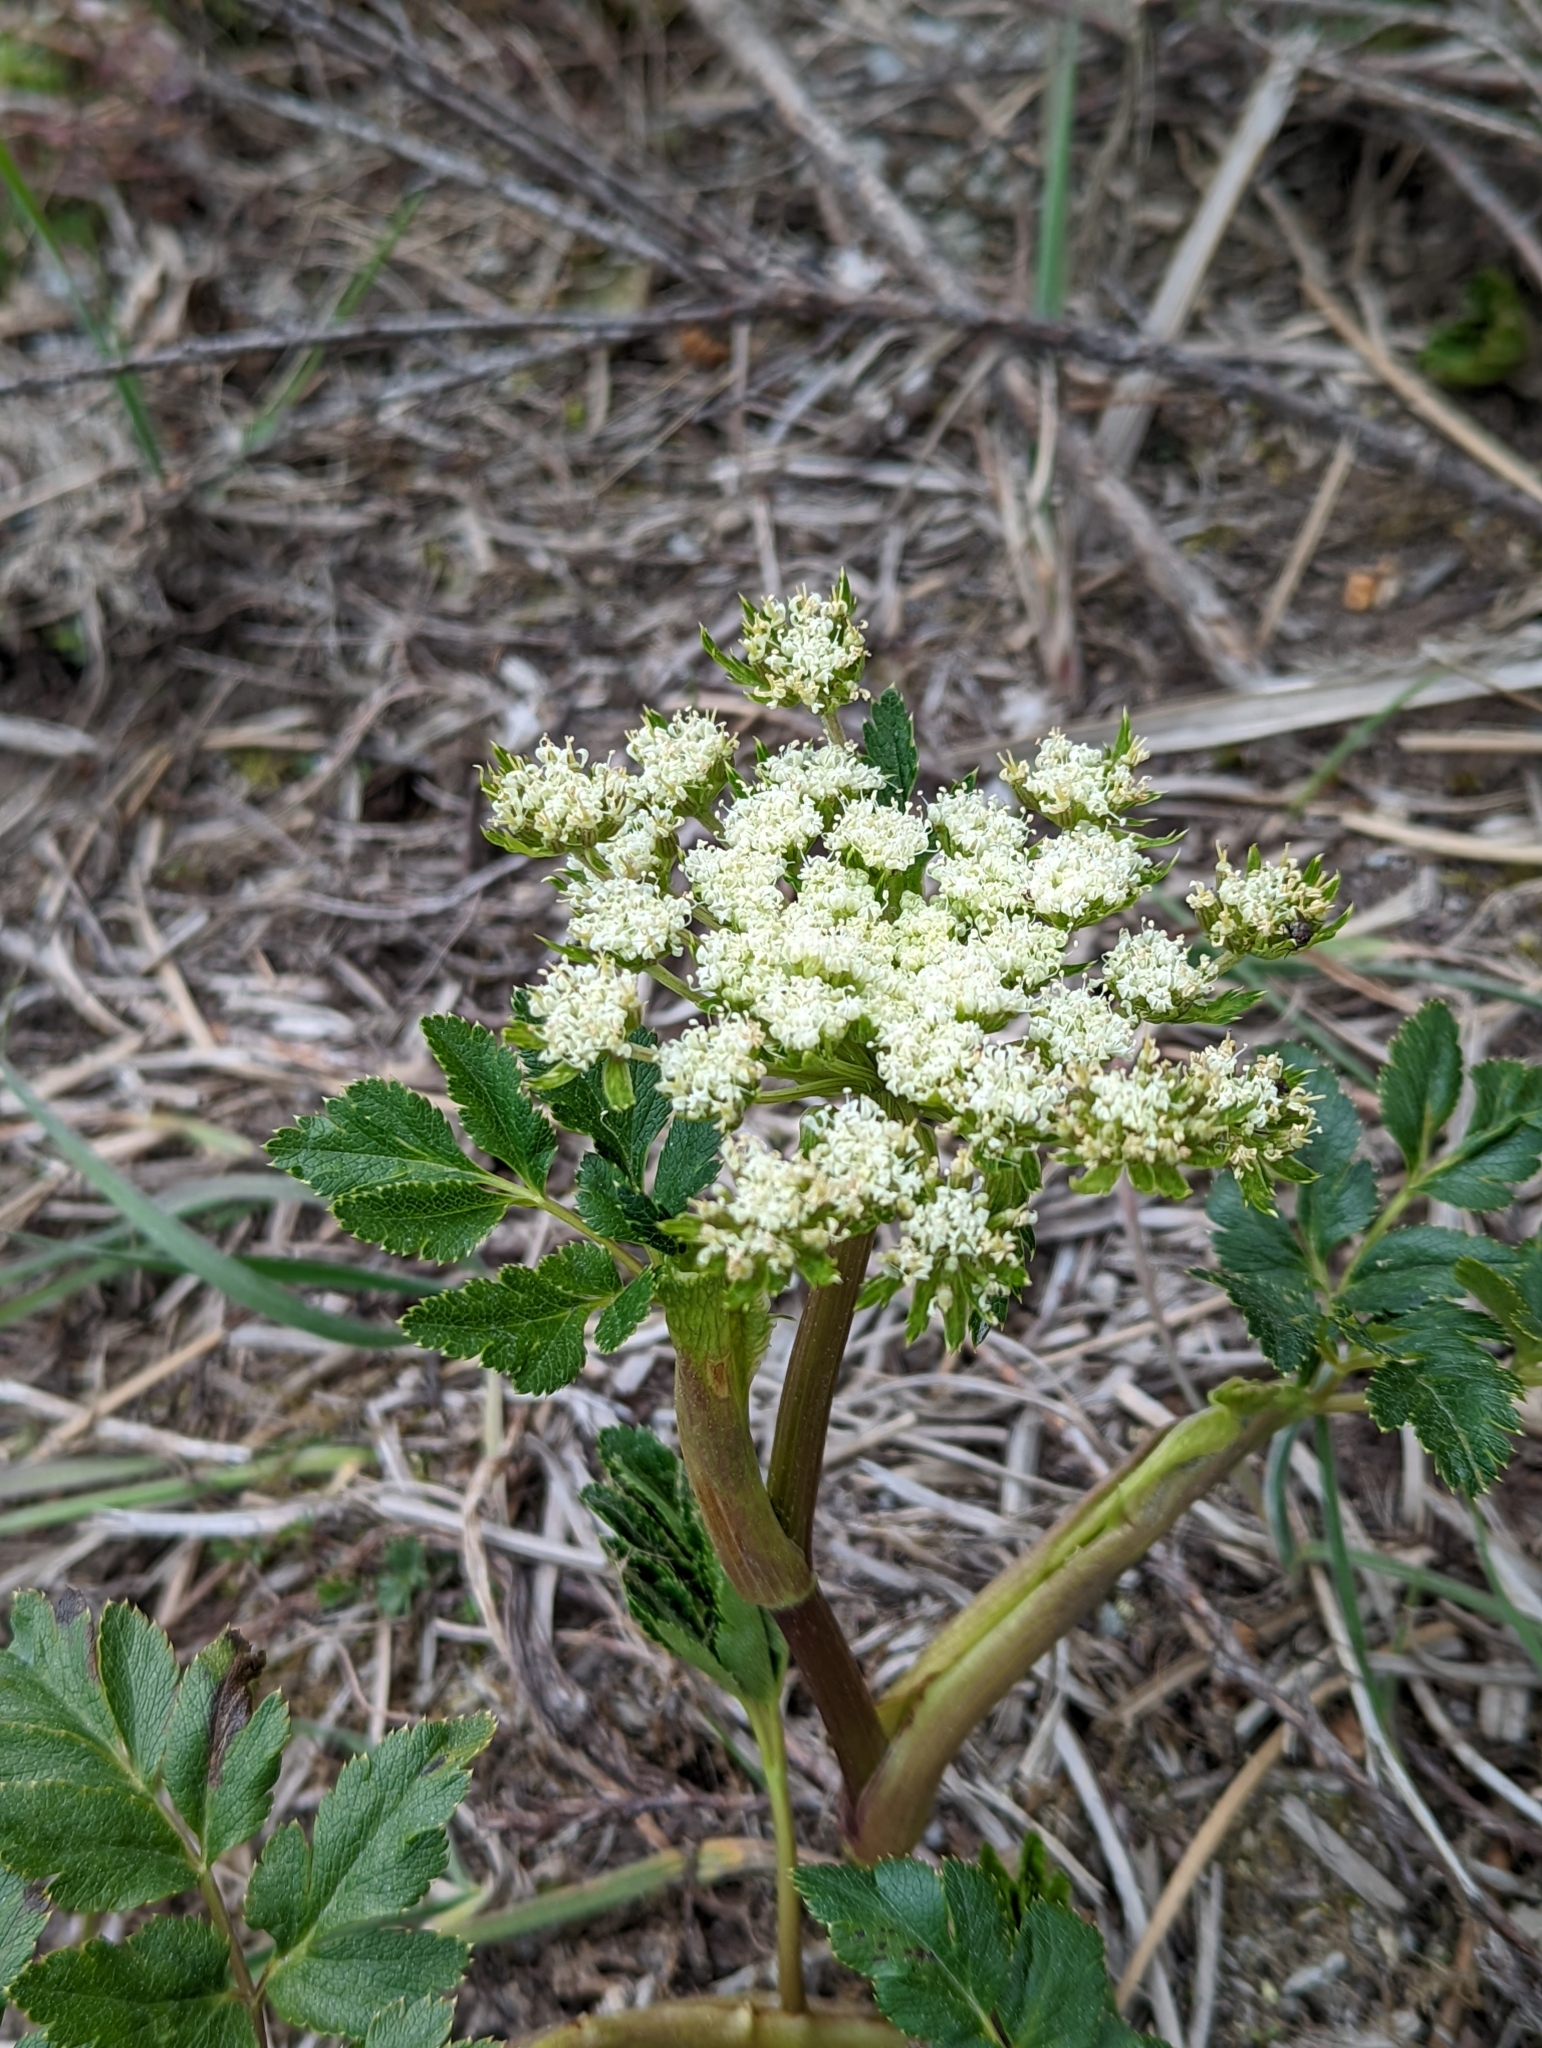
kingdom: Plantae
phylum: Tracheophyta
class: Magnoliopsida
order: Apiales
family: Apiaceae
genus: Myrrhidendron
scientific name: Myrrhidendron glaucescens
